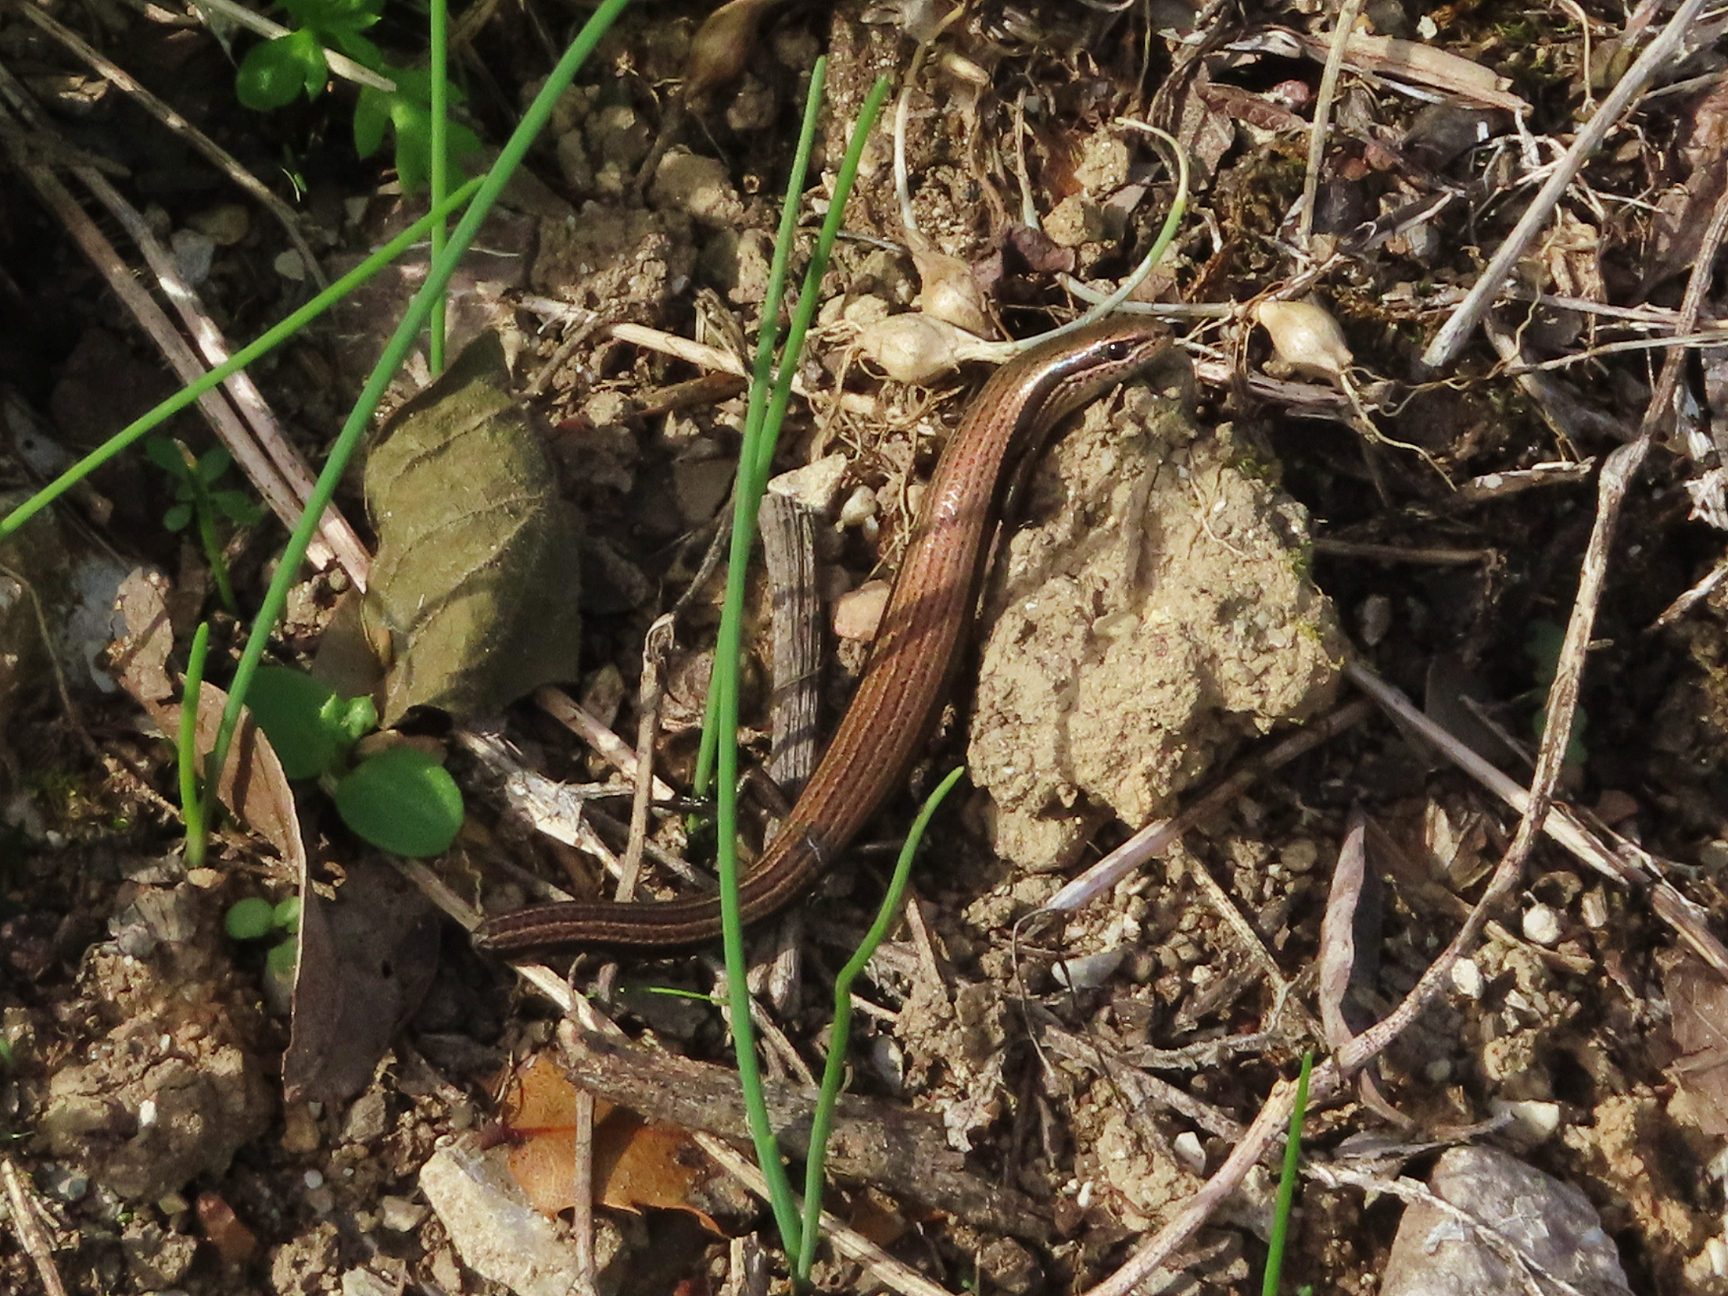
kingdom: Animalia
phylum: Chordata
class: Squamata
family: Scincidae
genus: Ablepharus
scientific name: Ablepharus kitaibelii
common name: Juniper skink
